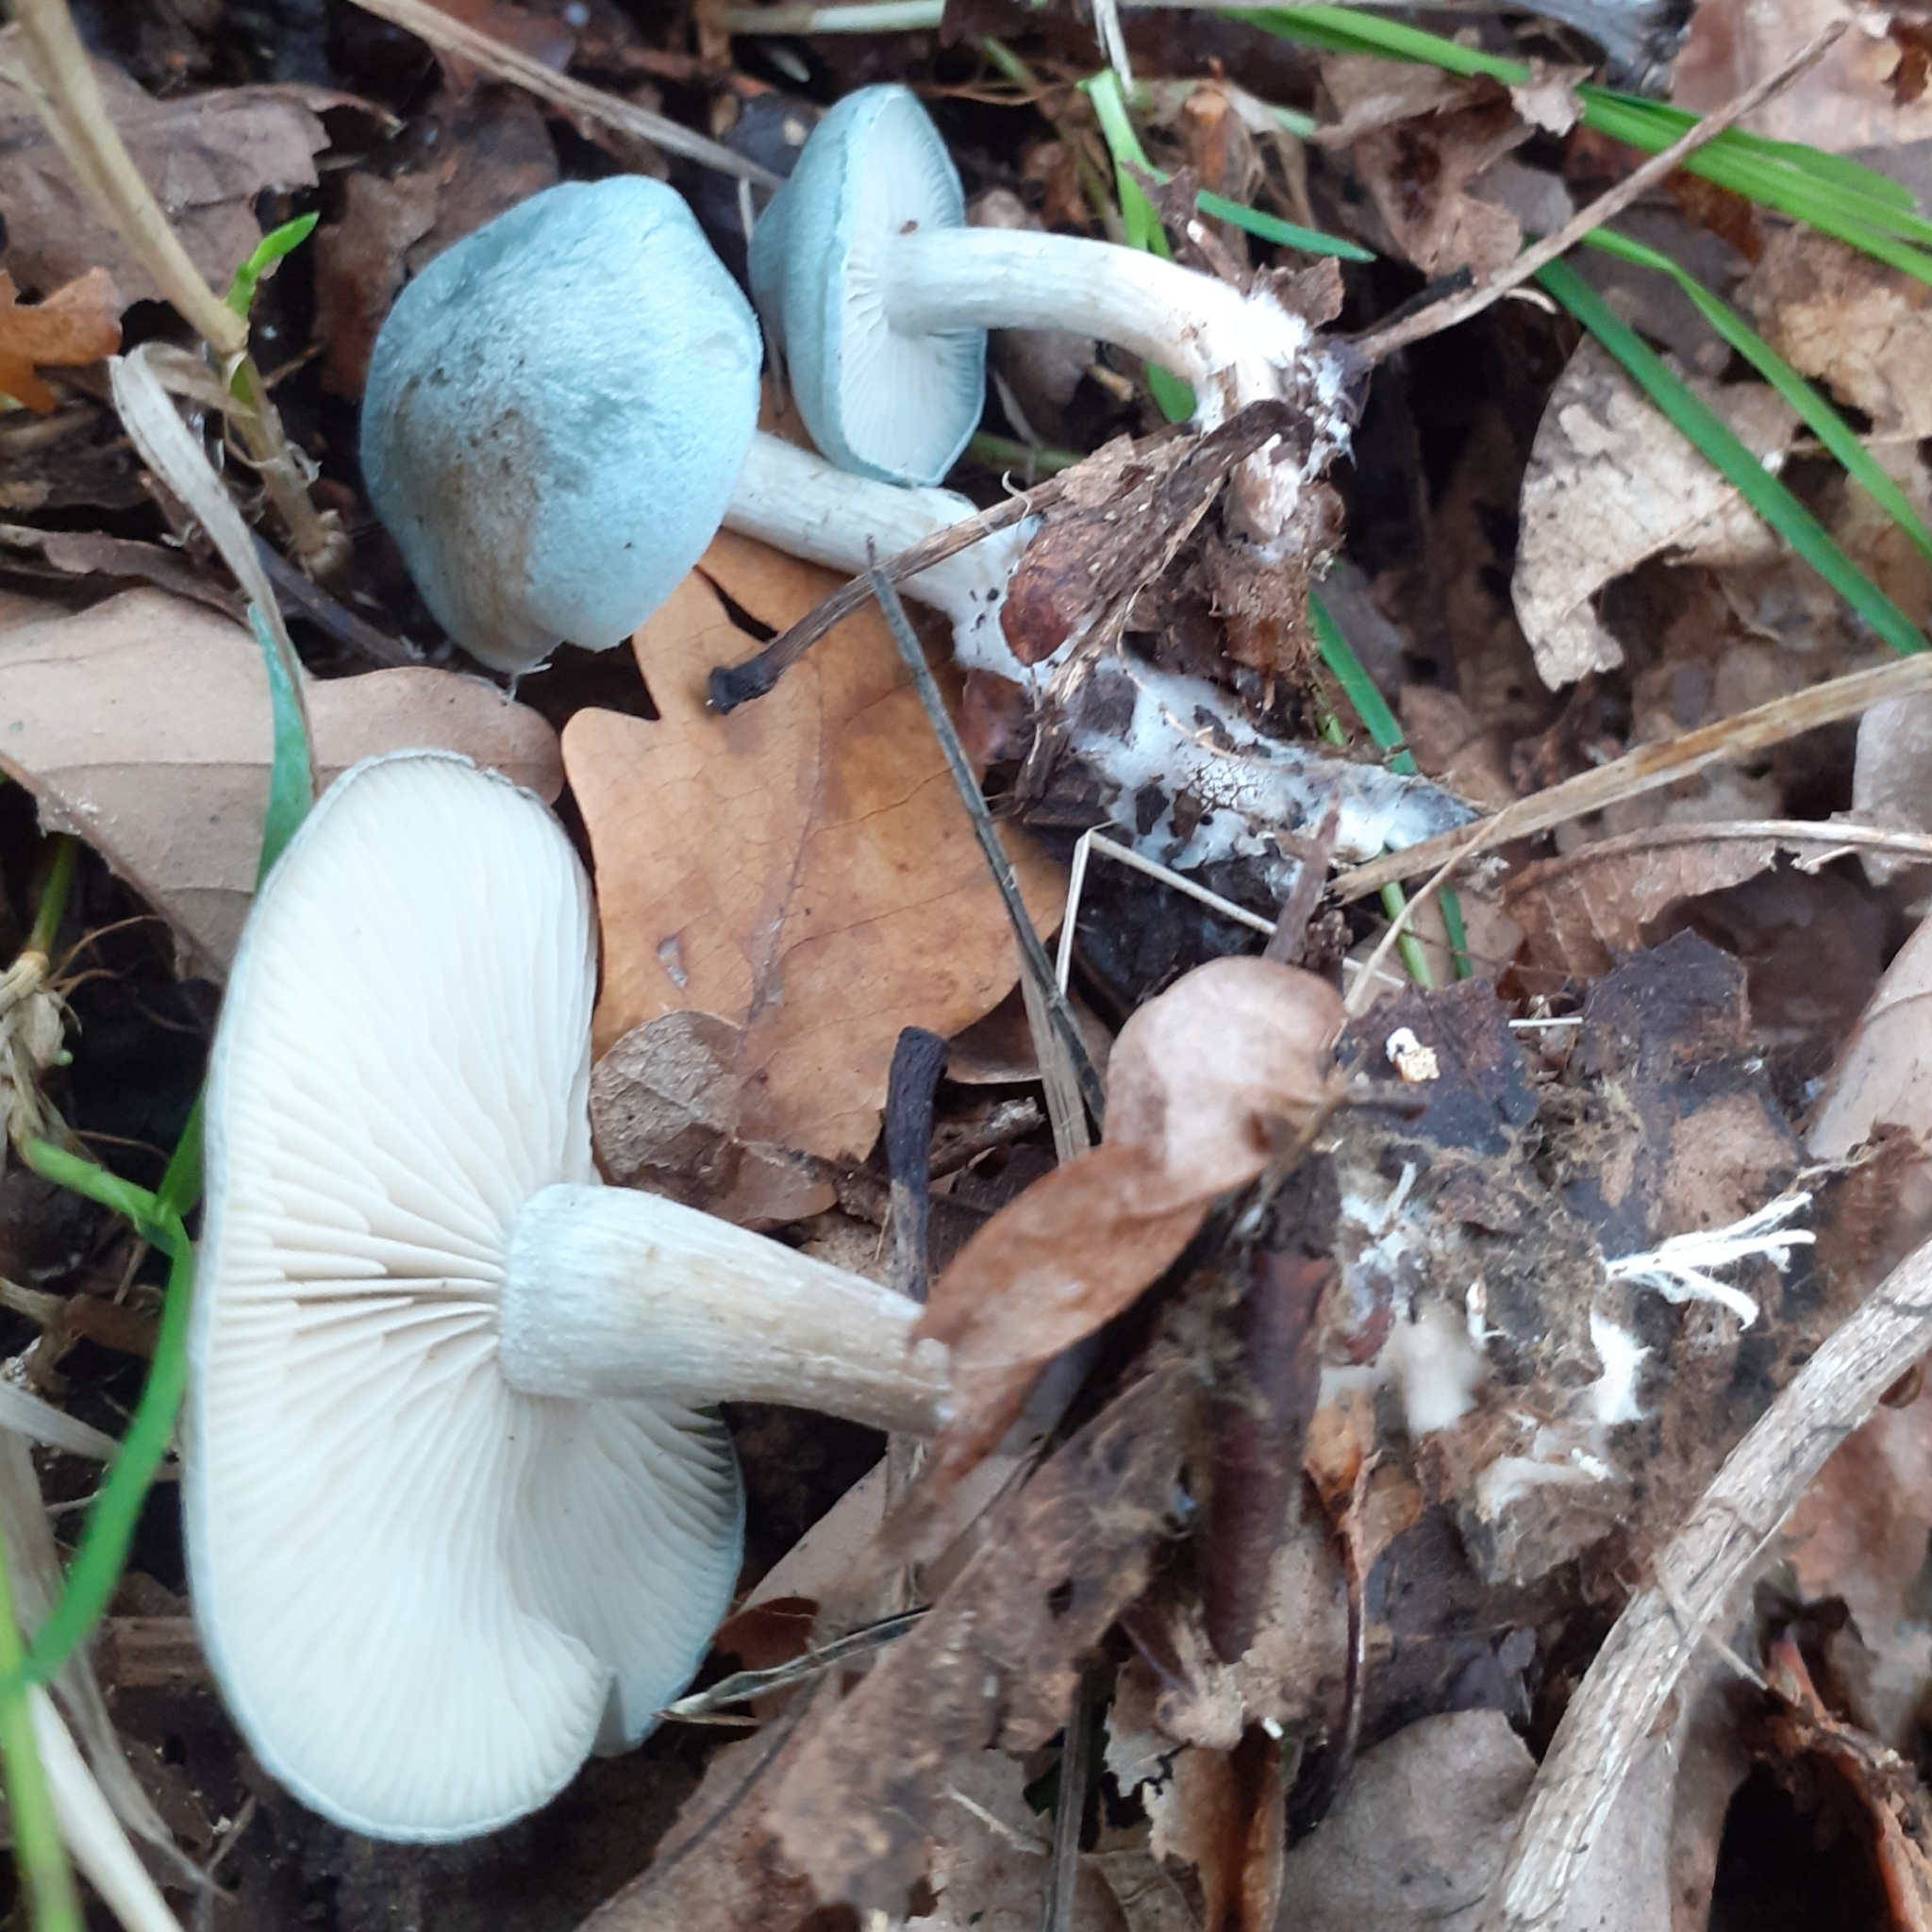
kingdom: Fungi
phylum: Basidiomycota
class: Agaricomycetes
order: Agaricales
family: Tricholomataceae
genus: Collybia
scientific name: Collybia
